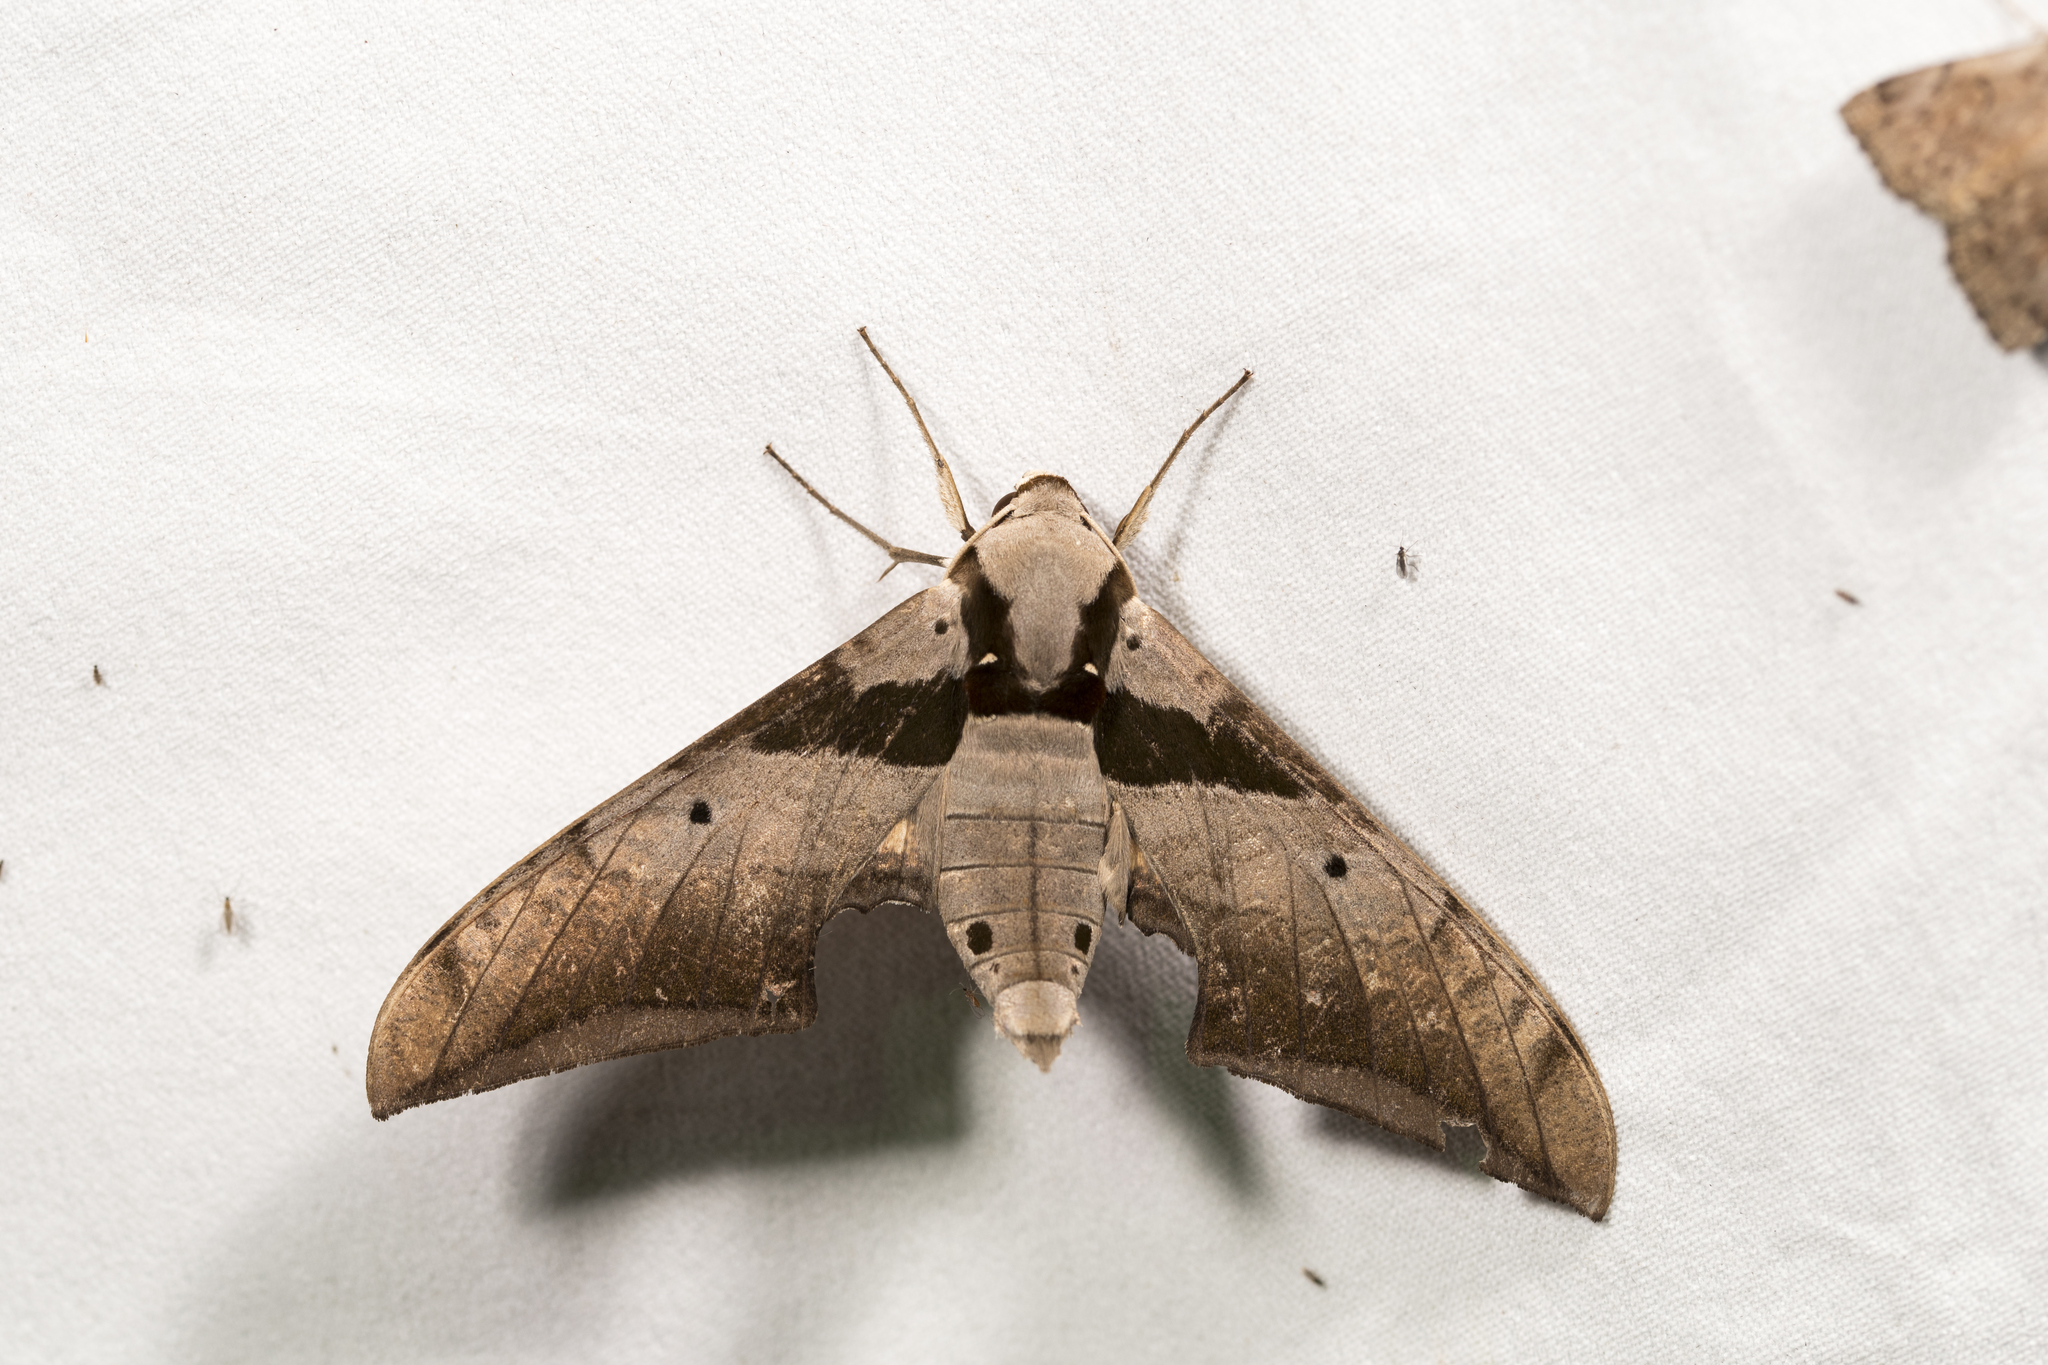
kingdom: Animalia
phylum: Arthropoda
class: Insecta
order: Lepidoptera
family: Sphingidae
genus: Ambulyx
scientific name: Ambulyx japonica
